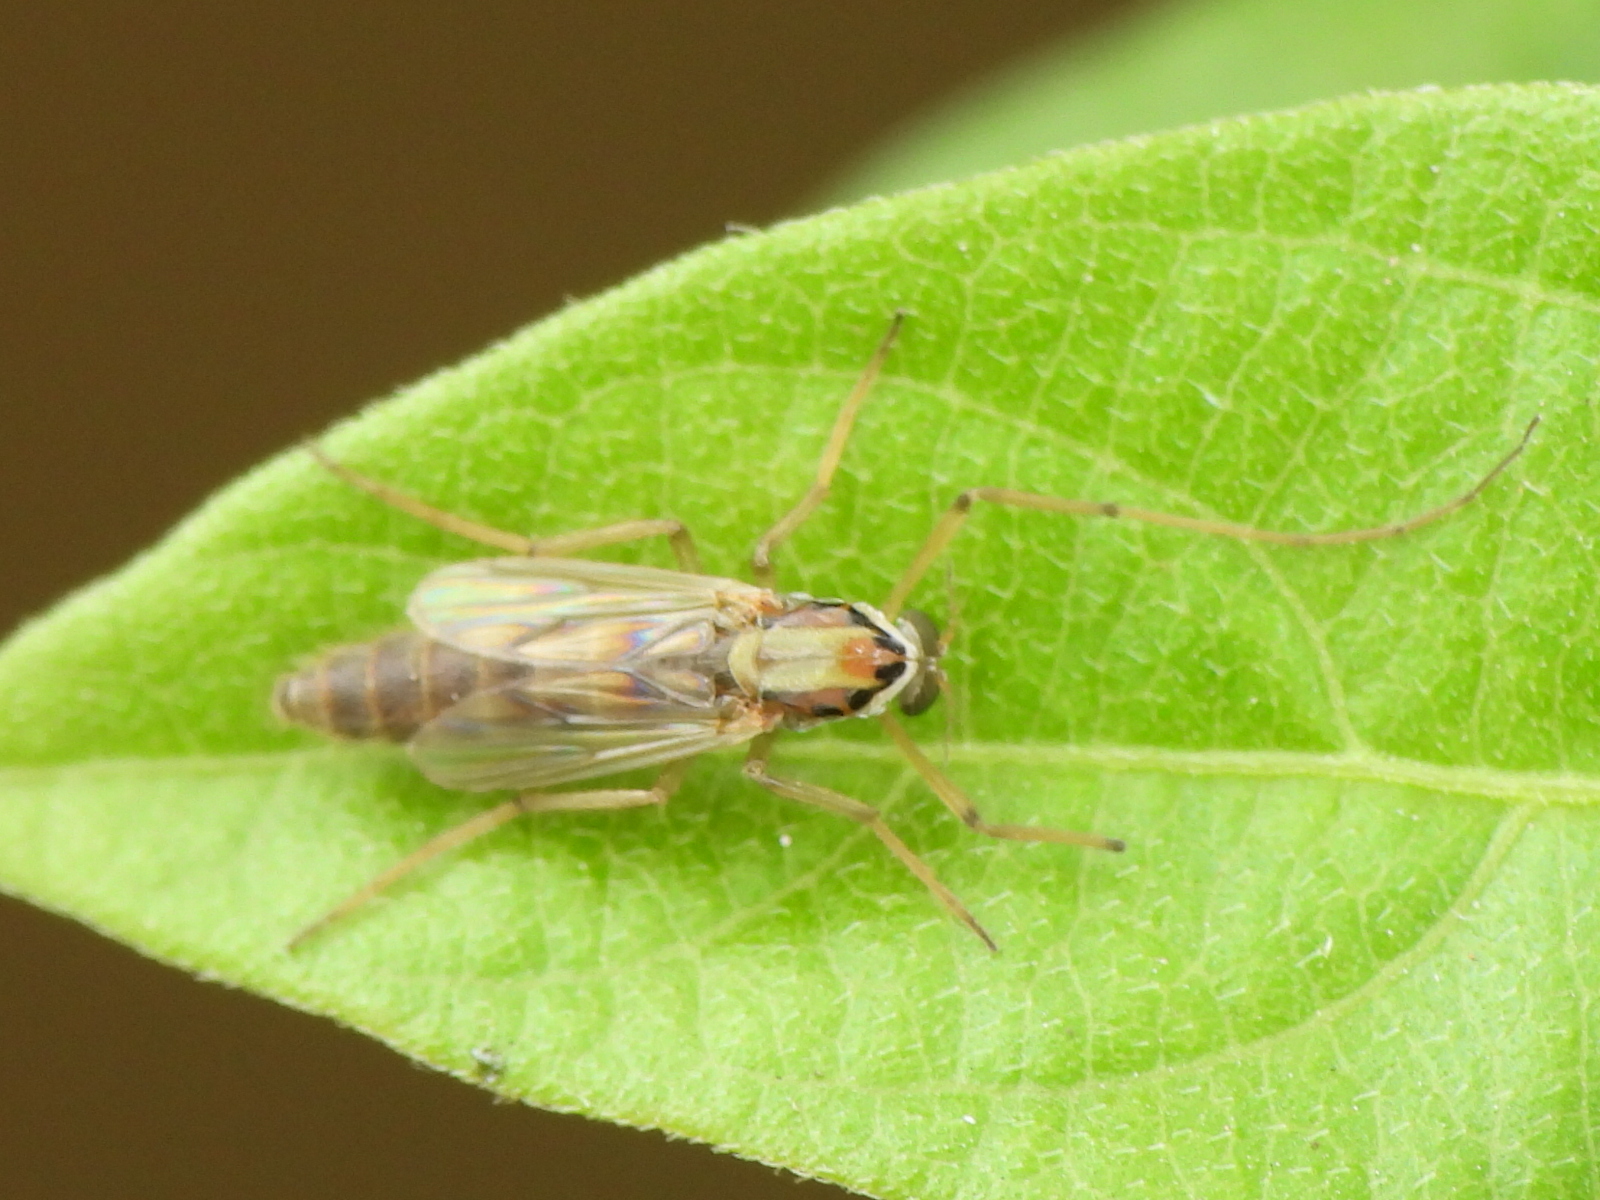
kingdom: Animalia
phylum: Arthropoda
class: Insecta
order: Diptera
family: Chironomidae
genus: Goeldichironomus
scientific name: Goeldichironomus carus
